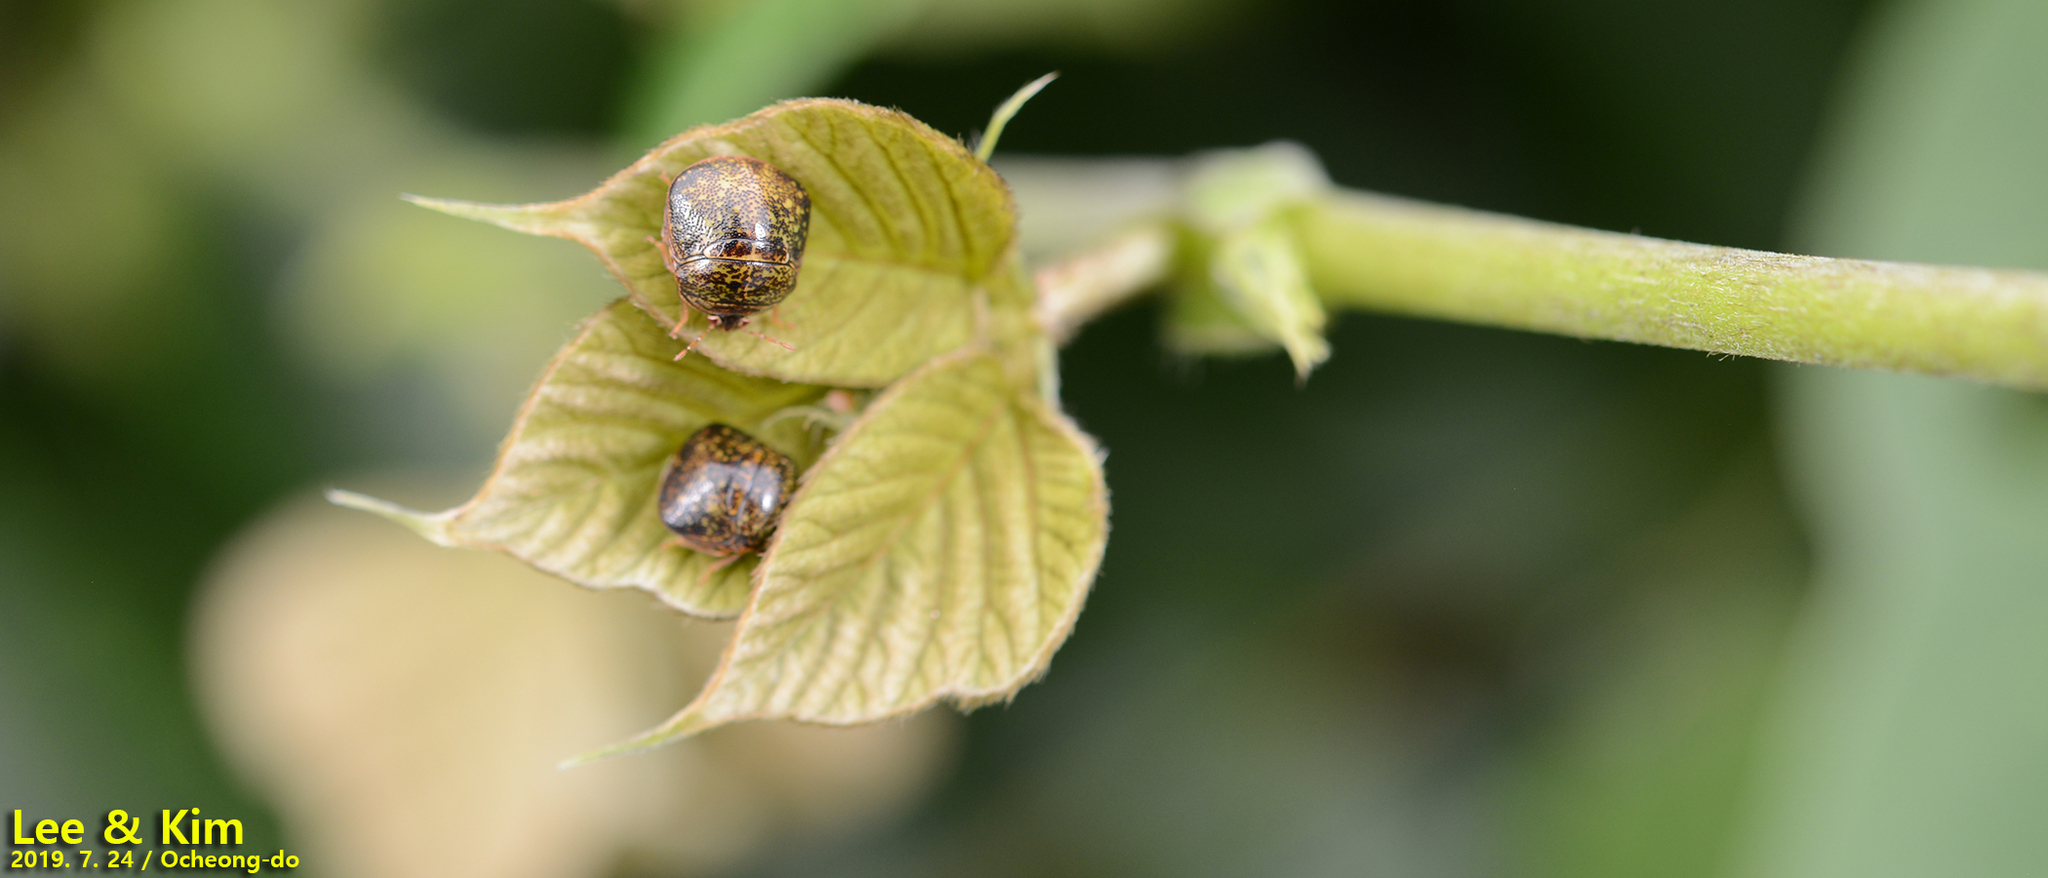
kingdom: Animalia
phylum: Arthropoda
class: Insecta
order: Hemiptera
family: Plataspidae
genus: Megacopta
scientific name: Megacopta cribraria
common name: Bean plataspid
